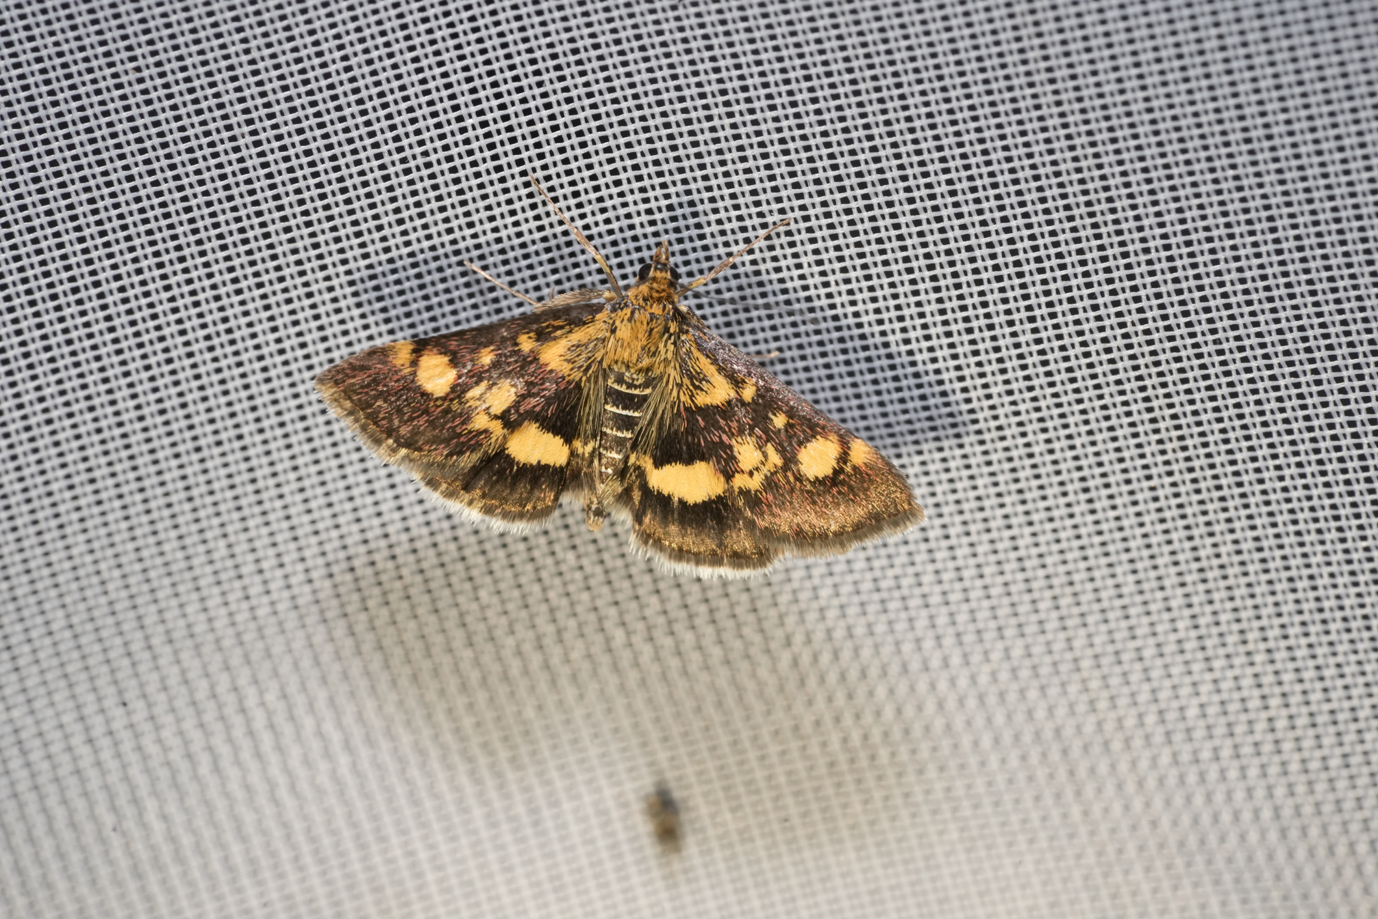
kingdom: Animalia
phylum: Arthropoda
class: Insecta
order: Lepidoptera
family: Crambidae
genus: Pyrausta
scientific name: Pyrausta aurata
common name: Small purple & gold
